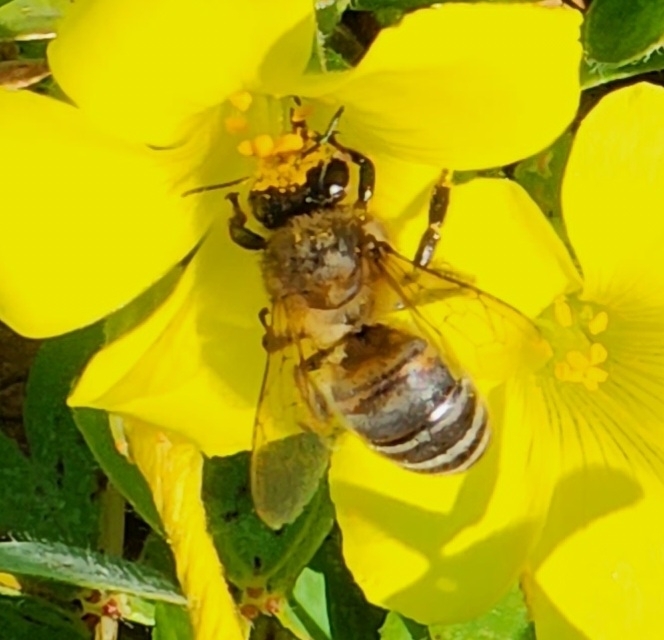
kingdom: Animalia
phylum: Arthropoda
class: Insecta
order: Hymenoptera
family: Apidae
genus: Apis
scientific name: Apis mellifera
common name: Honey bee
